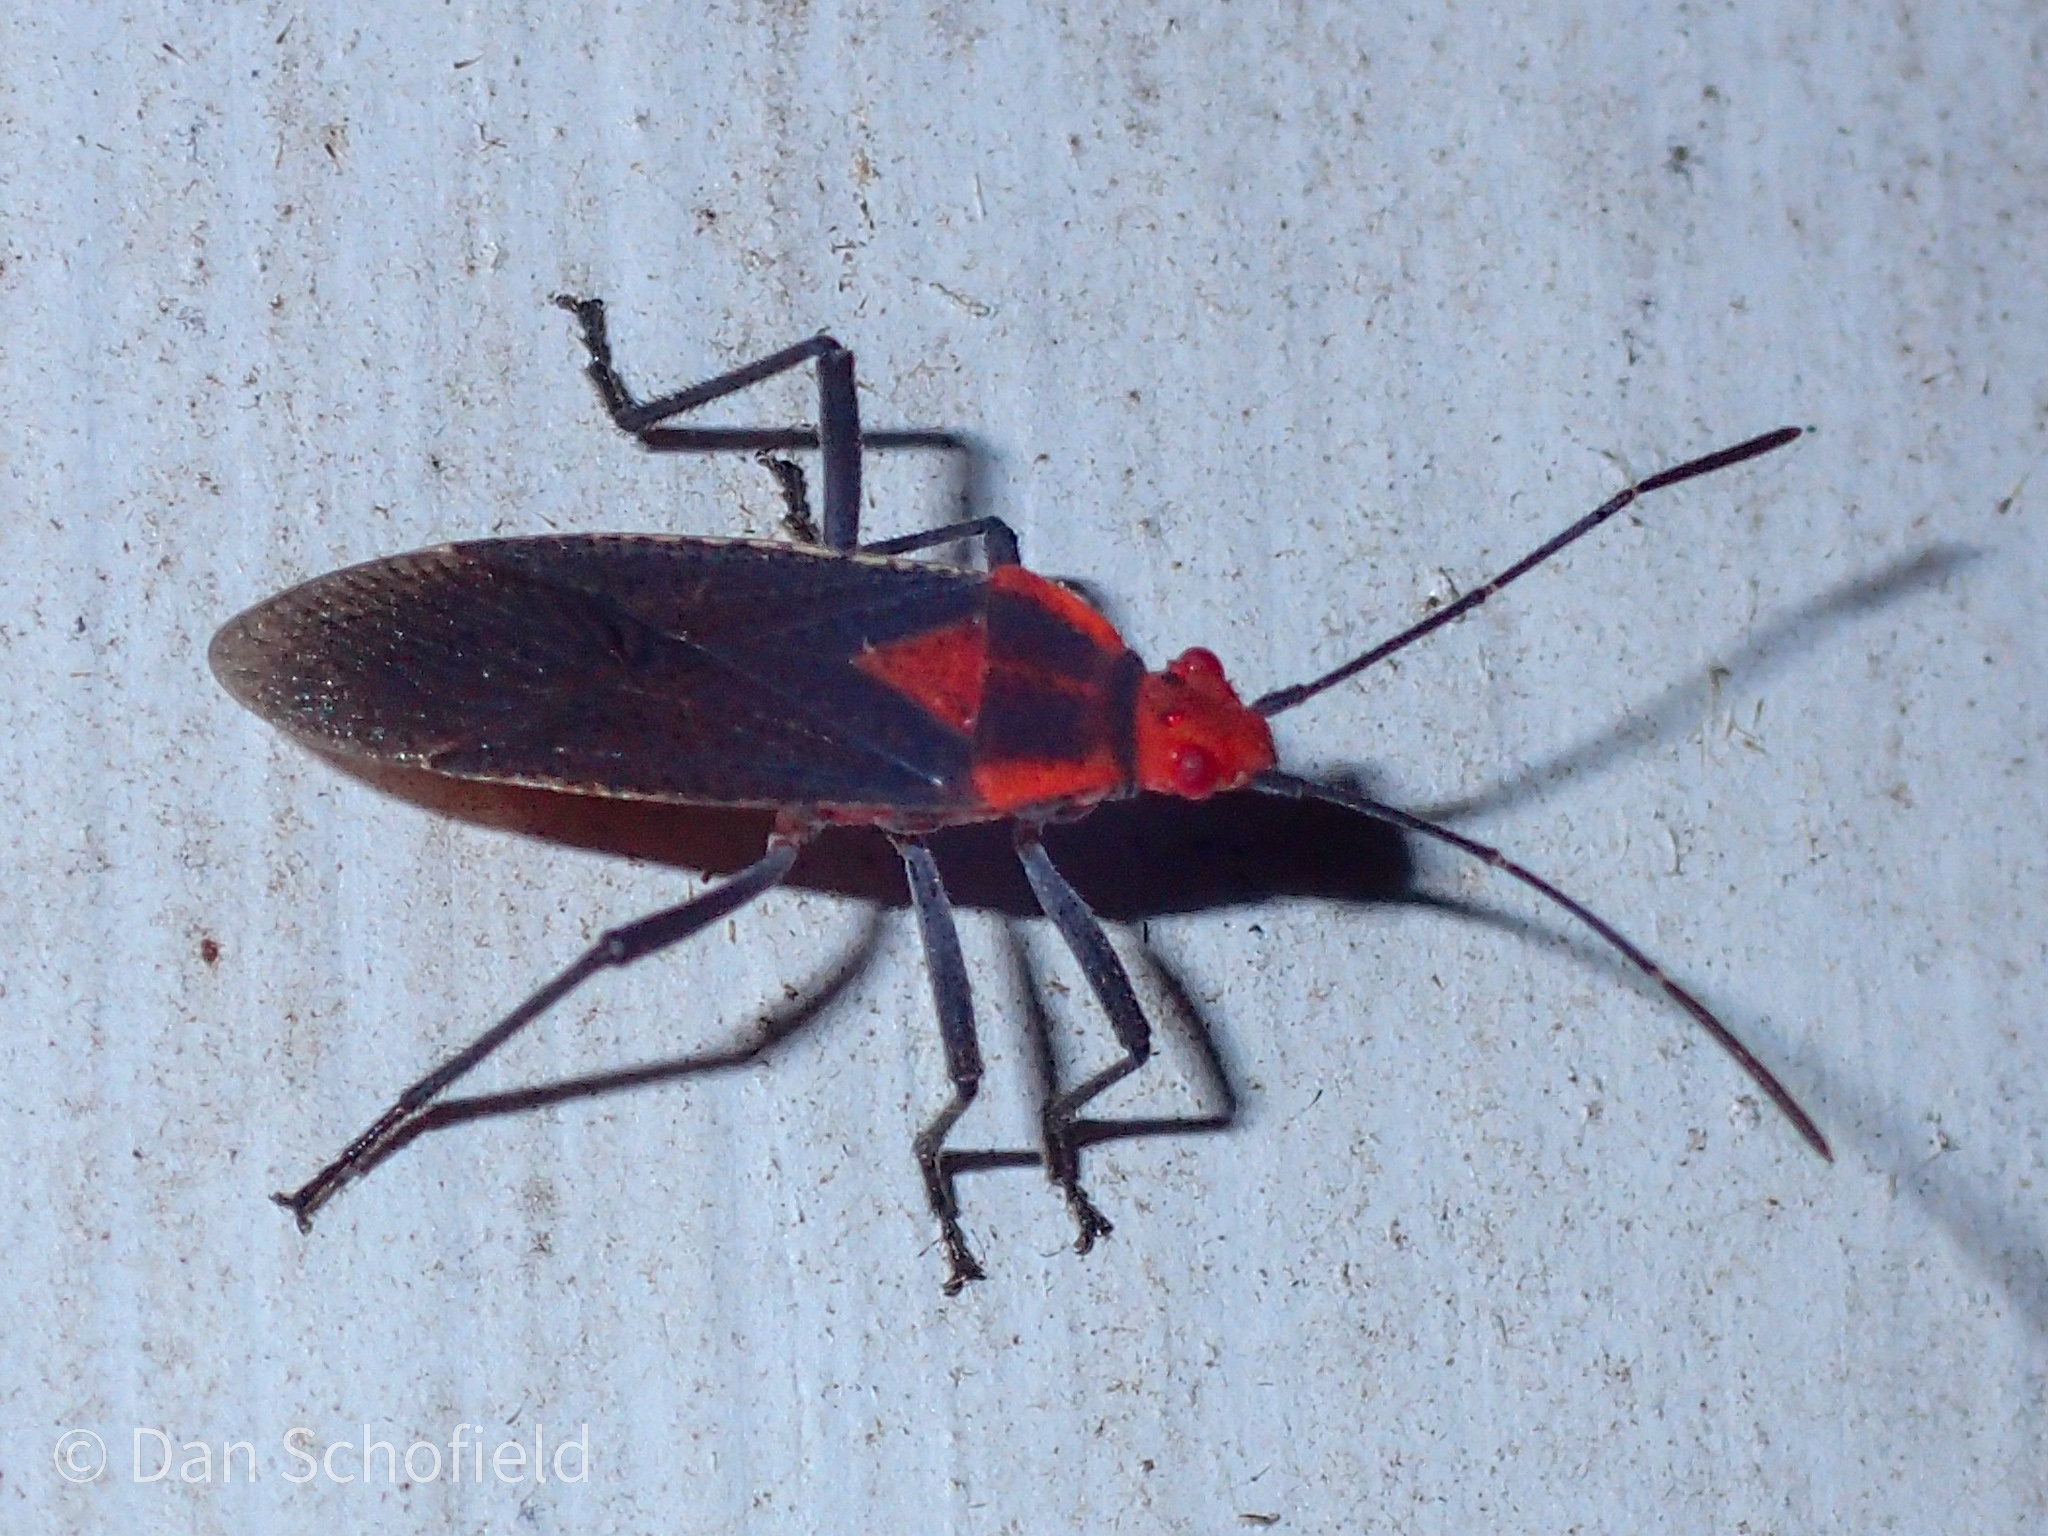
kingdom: Animalia
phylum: Arthropoda
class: Insecta
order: Hemiptera
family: Rhopalidae
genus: Jadera
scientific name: Jadera sanguinolenta
